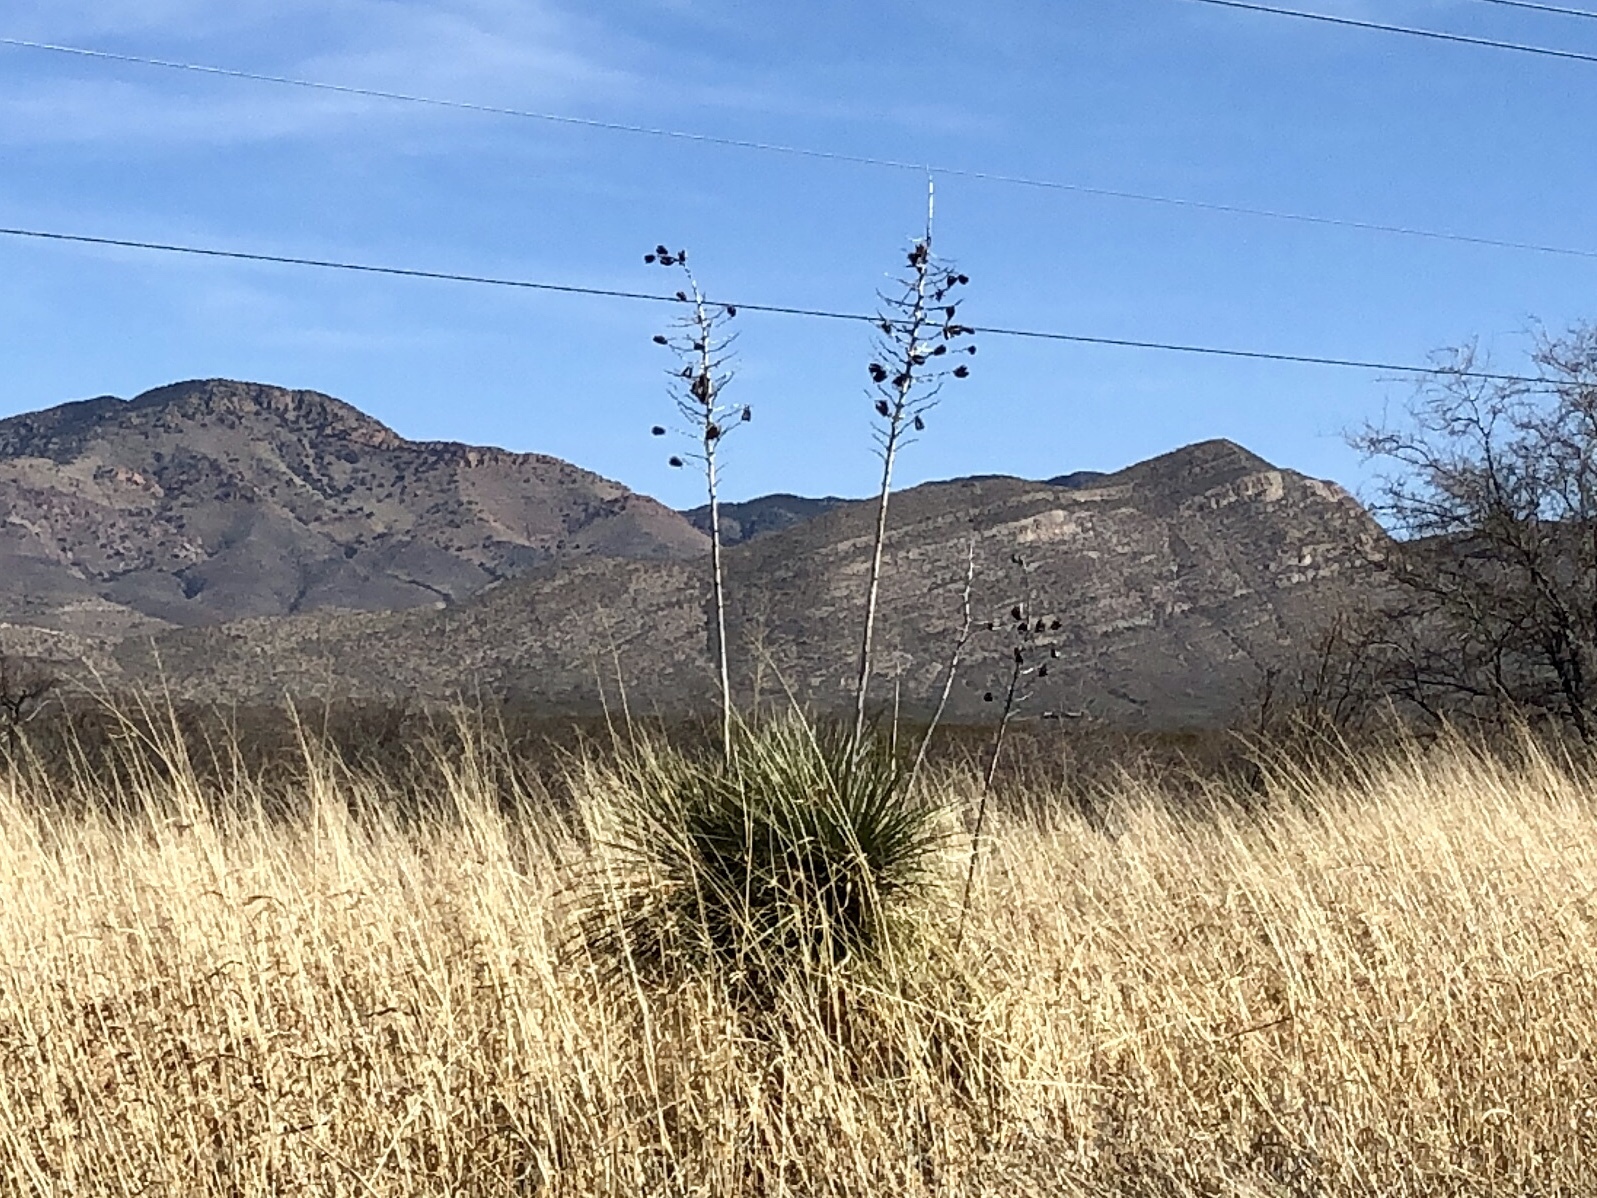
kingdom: Plantae
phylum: Tracheophyta
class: Liliopsida
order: Asparagales
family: Asparagaceae
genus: Yucca
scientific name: Yucca elata
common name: Palmella
